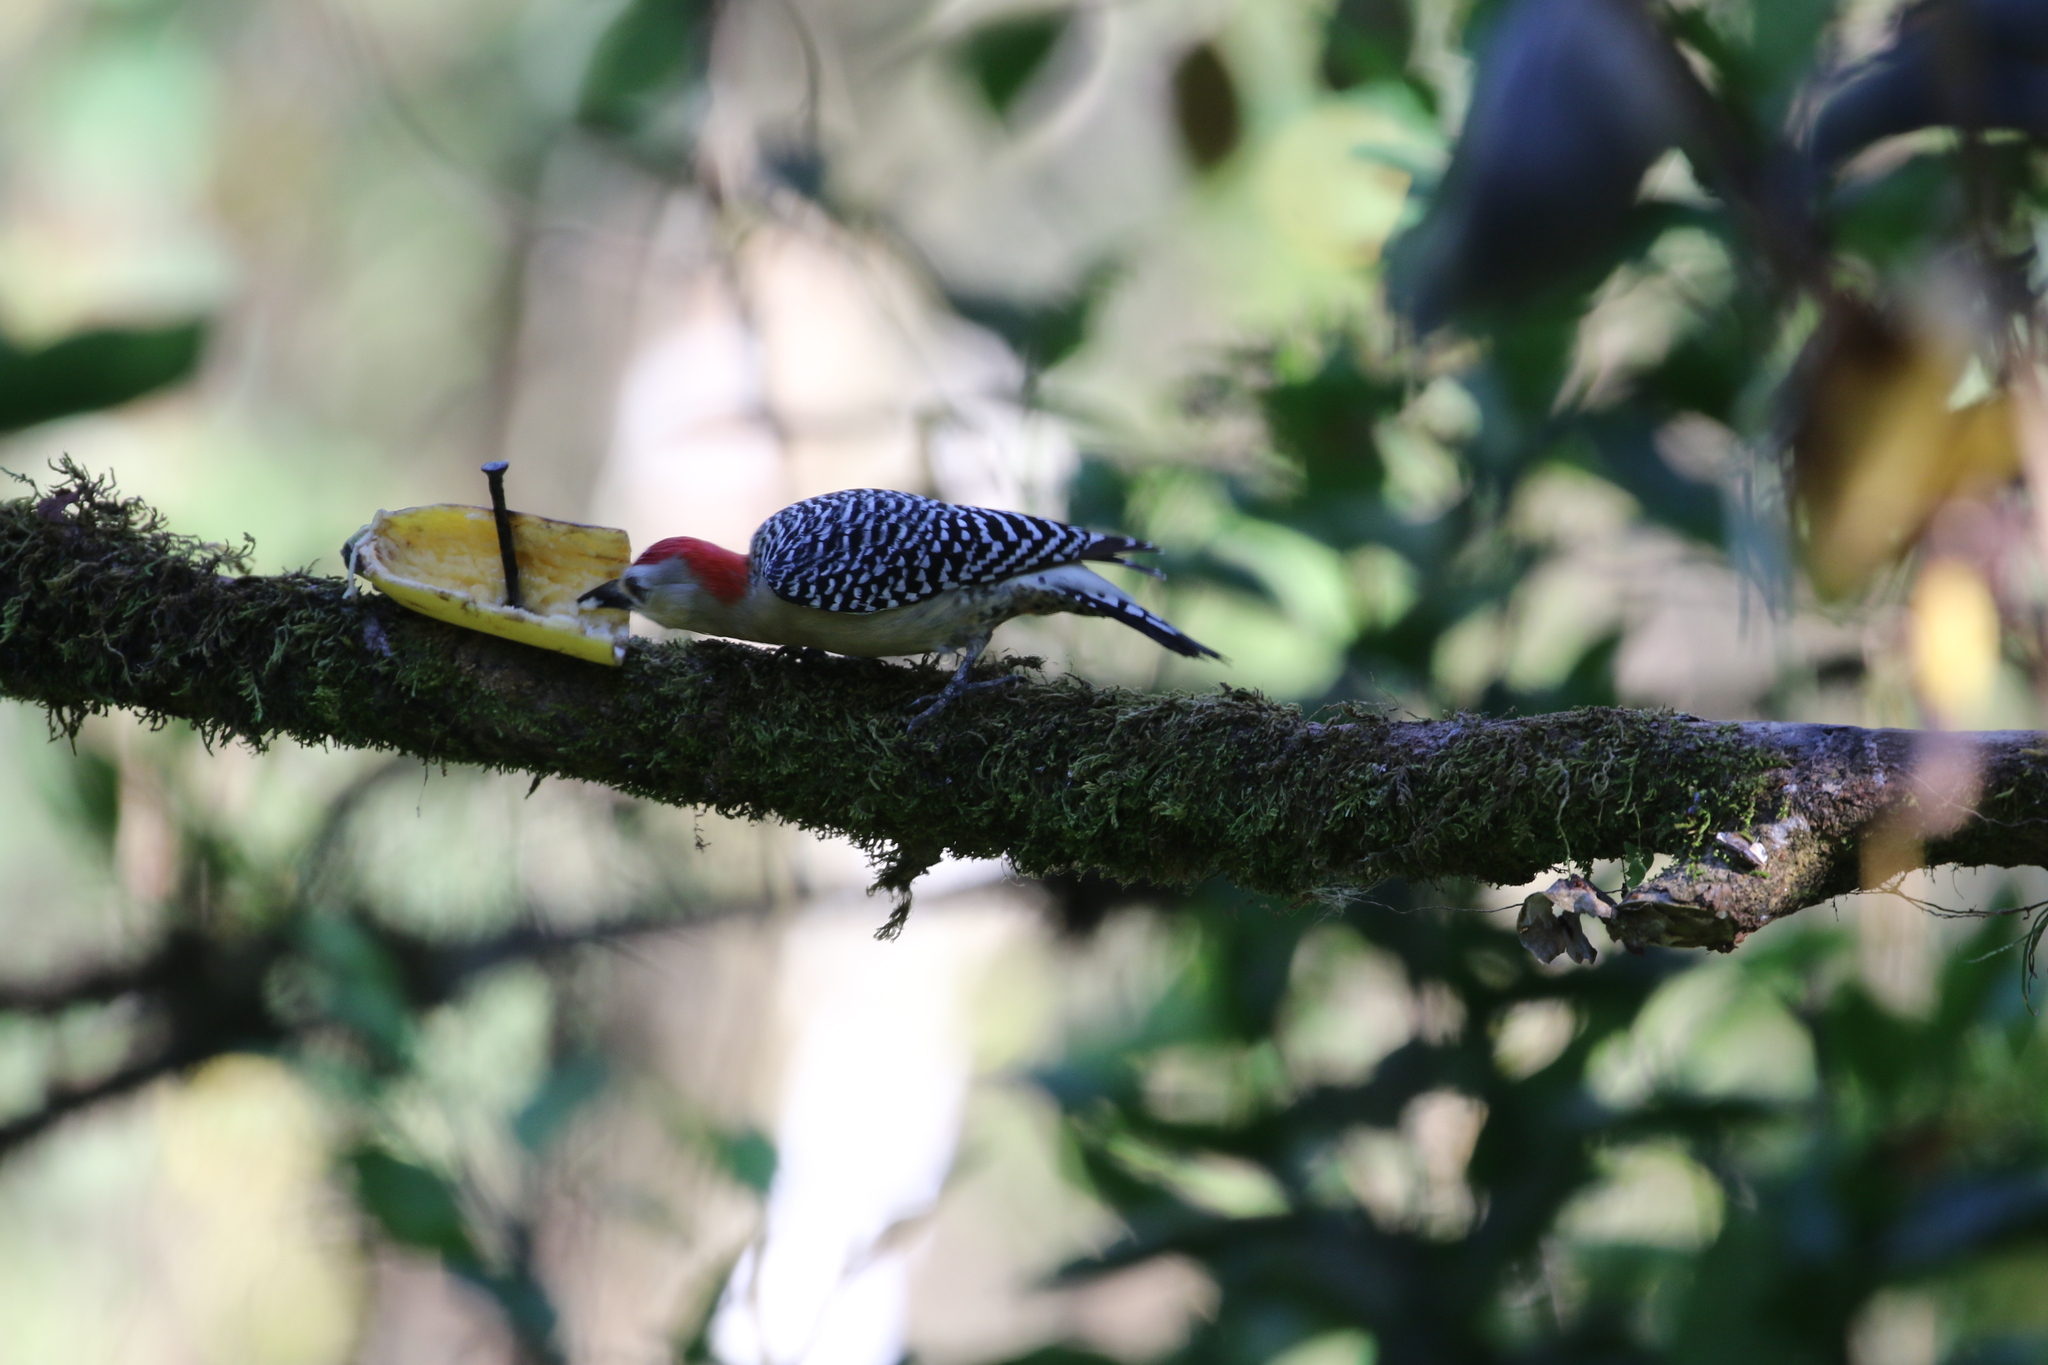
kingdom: Animalia
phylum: Chordata
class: Aves
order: Piciformes
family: Picidae
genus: Melanerpes
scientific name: Melanerpes rubricapillus
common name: Red-crowned woodpecker
